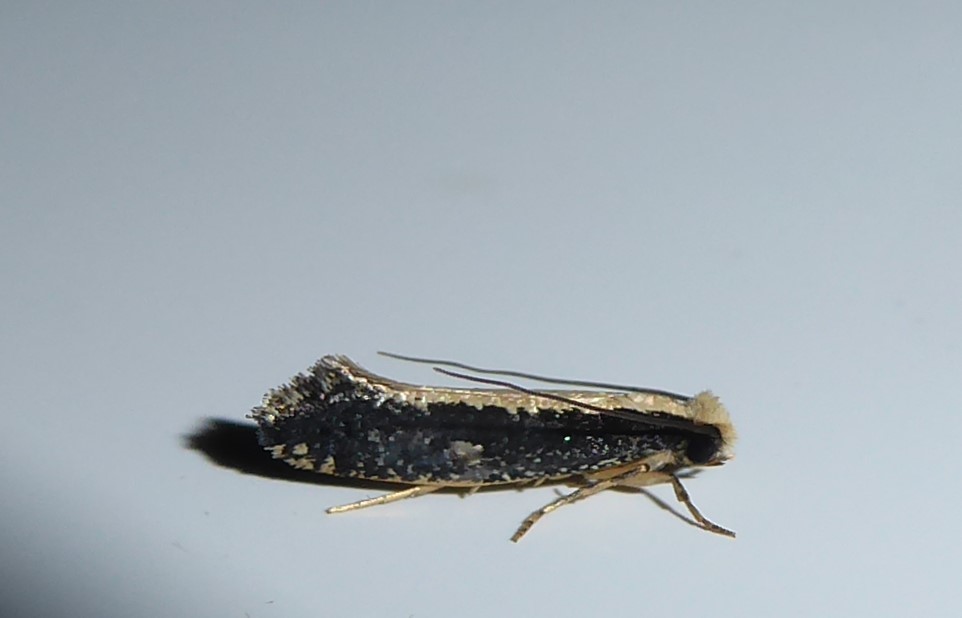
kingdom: Animalia
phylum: Arthropoda
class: Insecta
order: Lepidoptera
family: Tineidae
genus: Monopis
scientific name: Monopis ethelella
